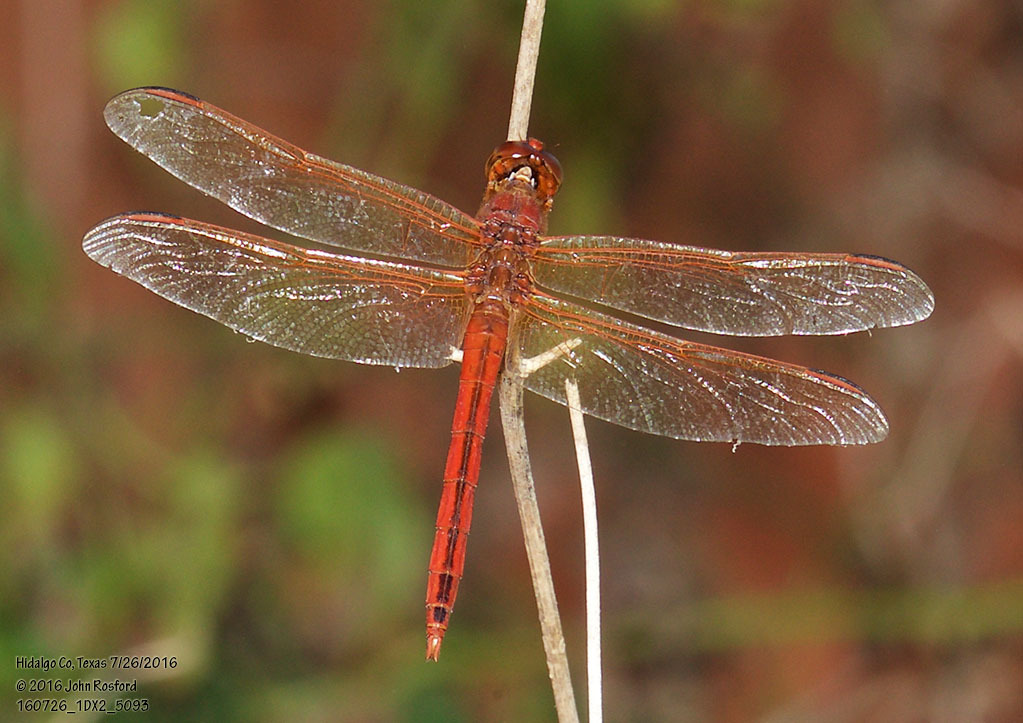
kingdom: Animalia
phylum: Arthropoda
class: Insecta
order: Odonata
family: Libellulidae
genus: Libellula
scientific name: Libellula needhami
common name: Needham's skimmer
